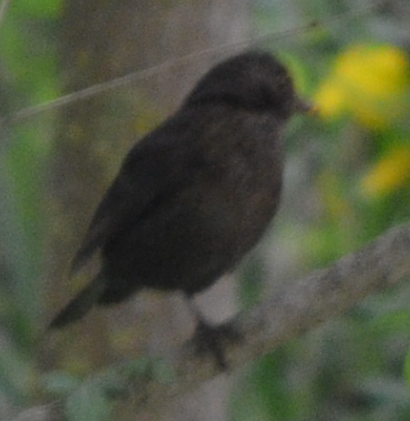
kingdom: Animalia
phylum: Chordata
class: Aves
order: Passeriformes
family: Turdidae
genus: Turdus
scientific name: Turdus merula
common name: Common blackbird
